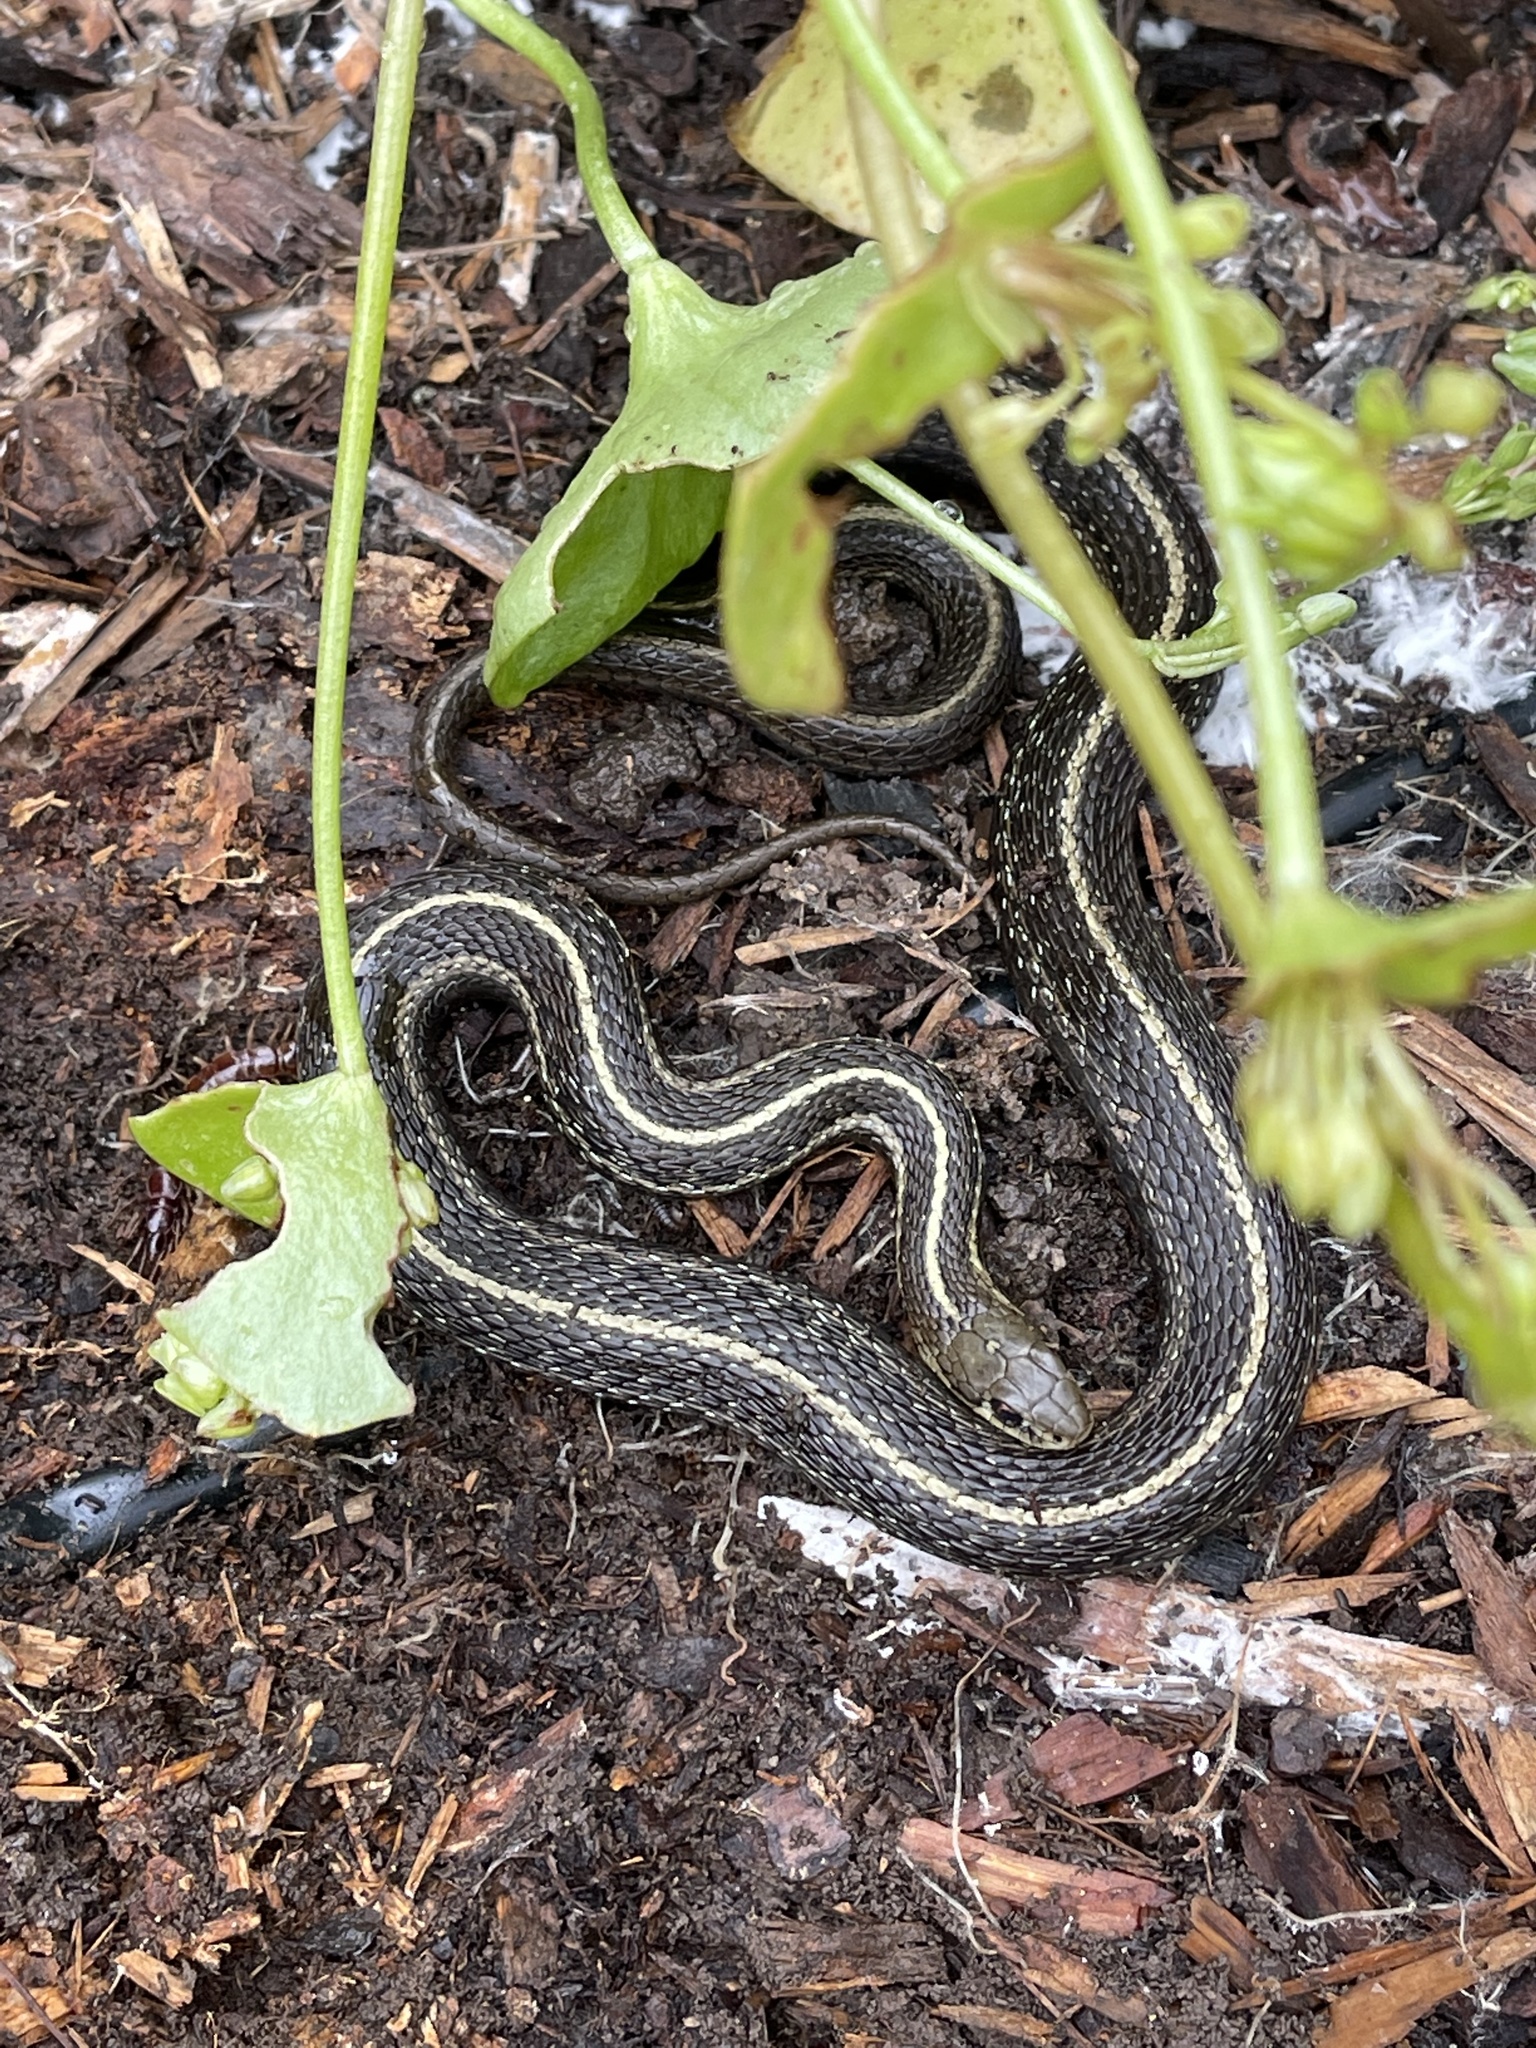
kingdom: Animalia
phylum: Chordata
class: Squamata
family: Colubridae
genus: Thamnophis
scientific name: Thamnophis ordinoides
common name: Northwestern garter snake
